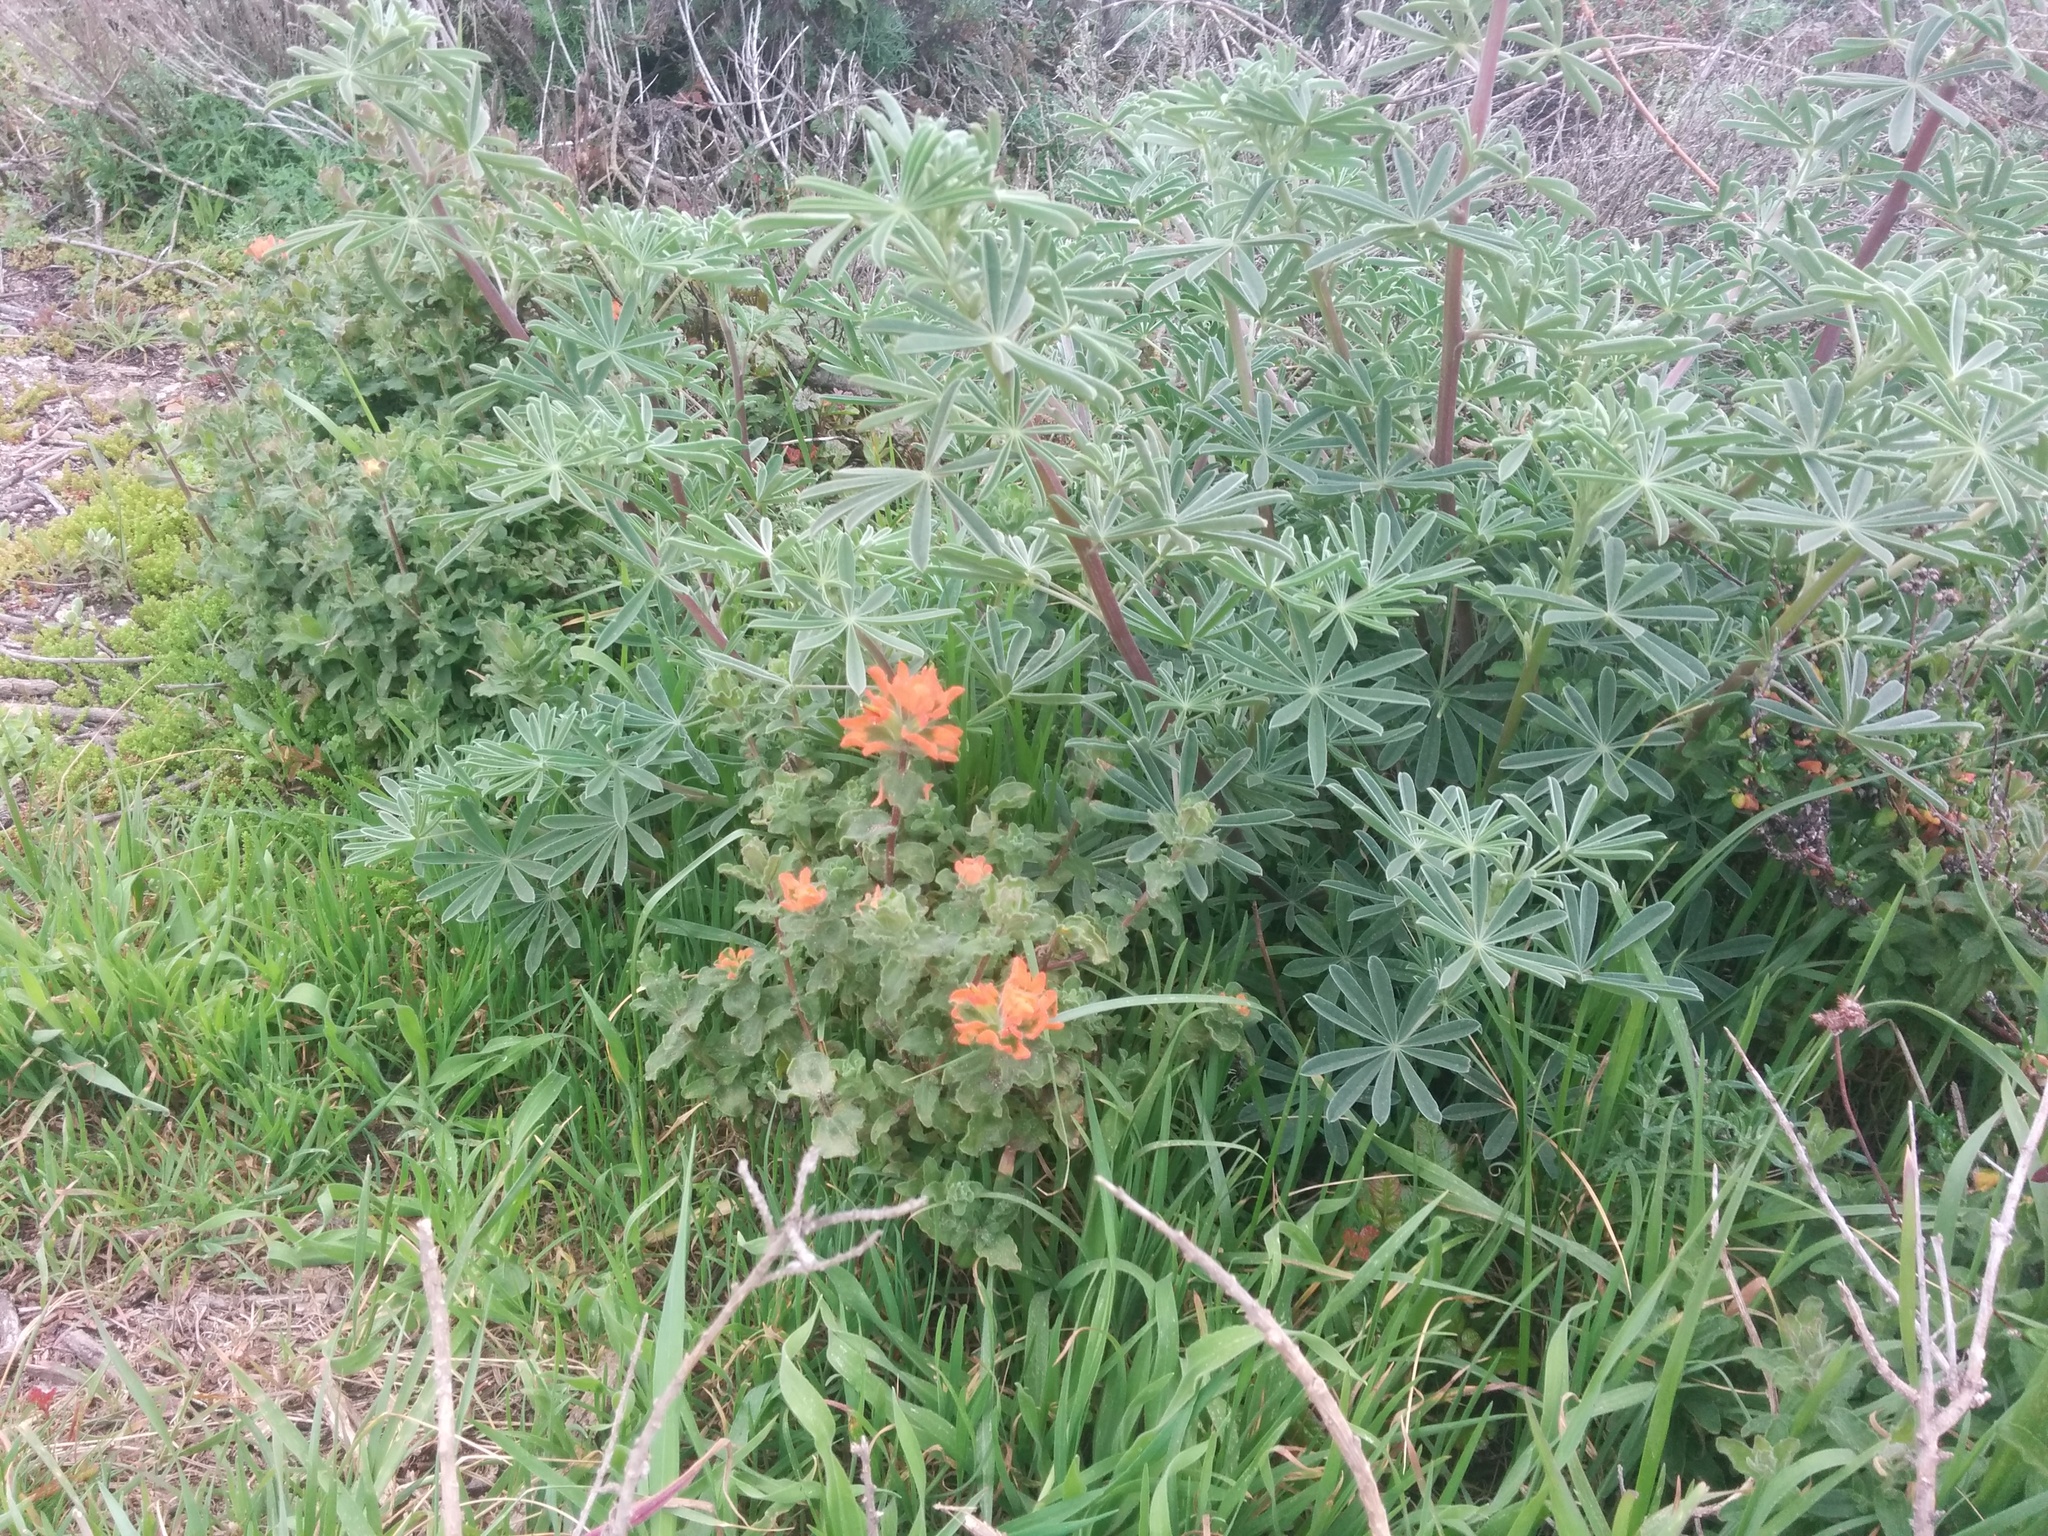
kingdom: Plantae
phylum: Tracheophyta
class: Magnoliopsida
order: Lamiales
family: Orobanchaceae
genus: Castilleja
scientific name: Castilleja latifolia
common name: Monterey indian paintbrush
